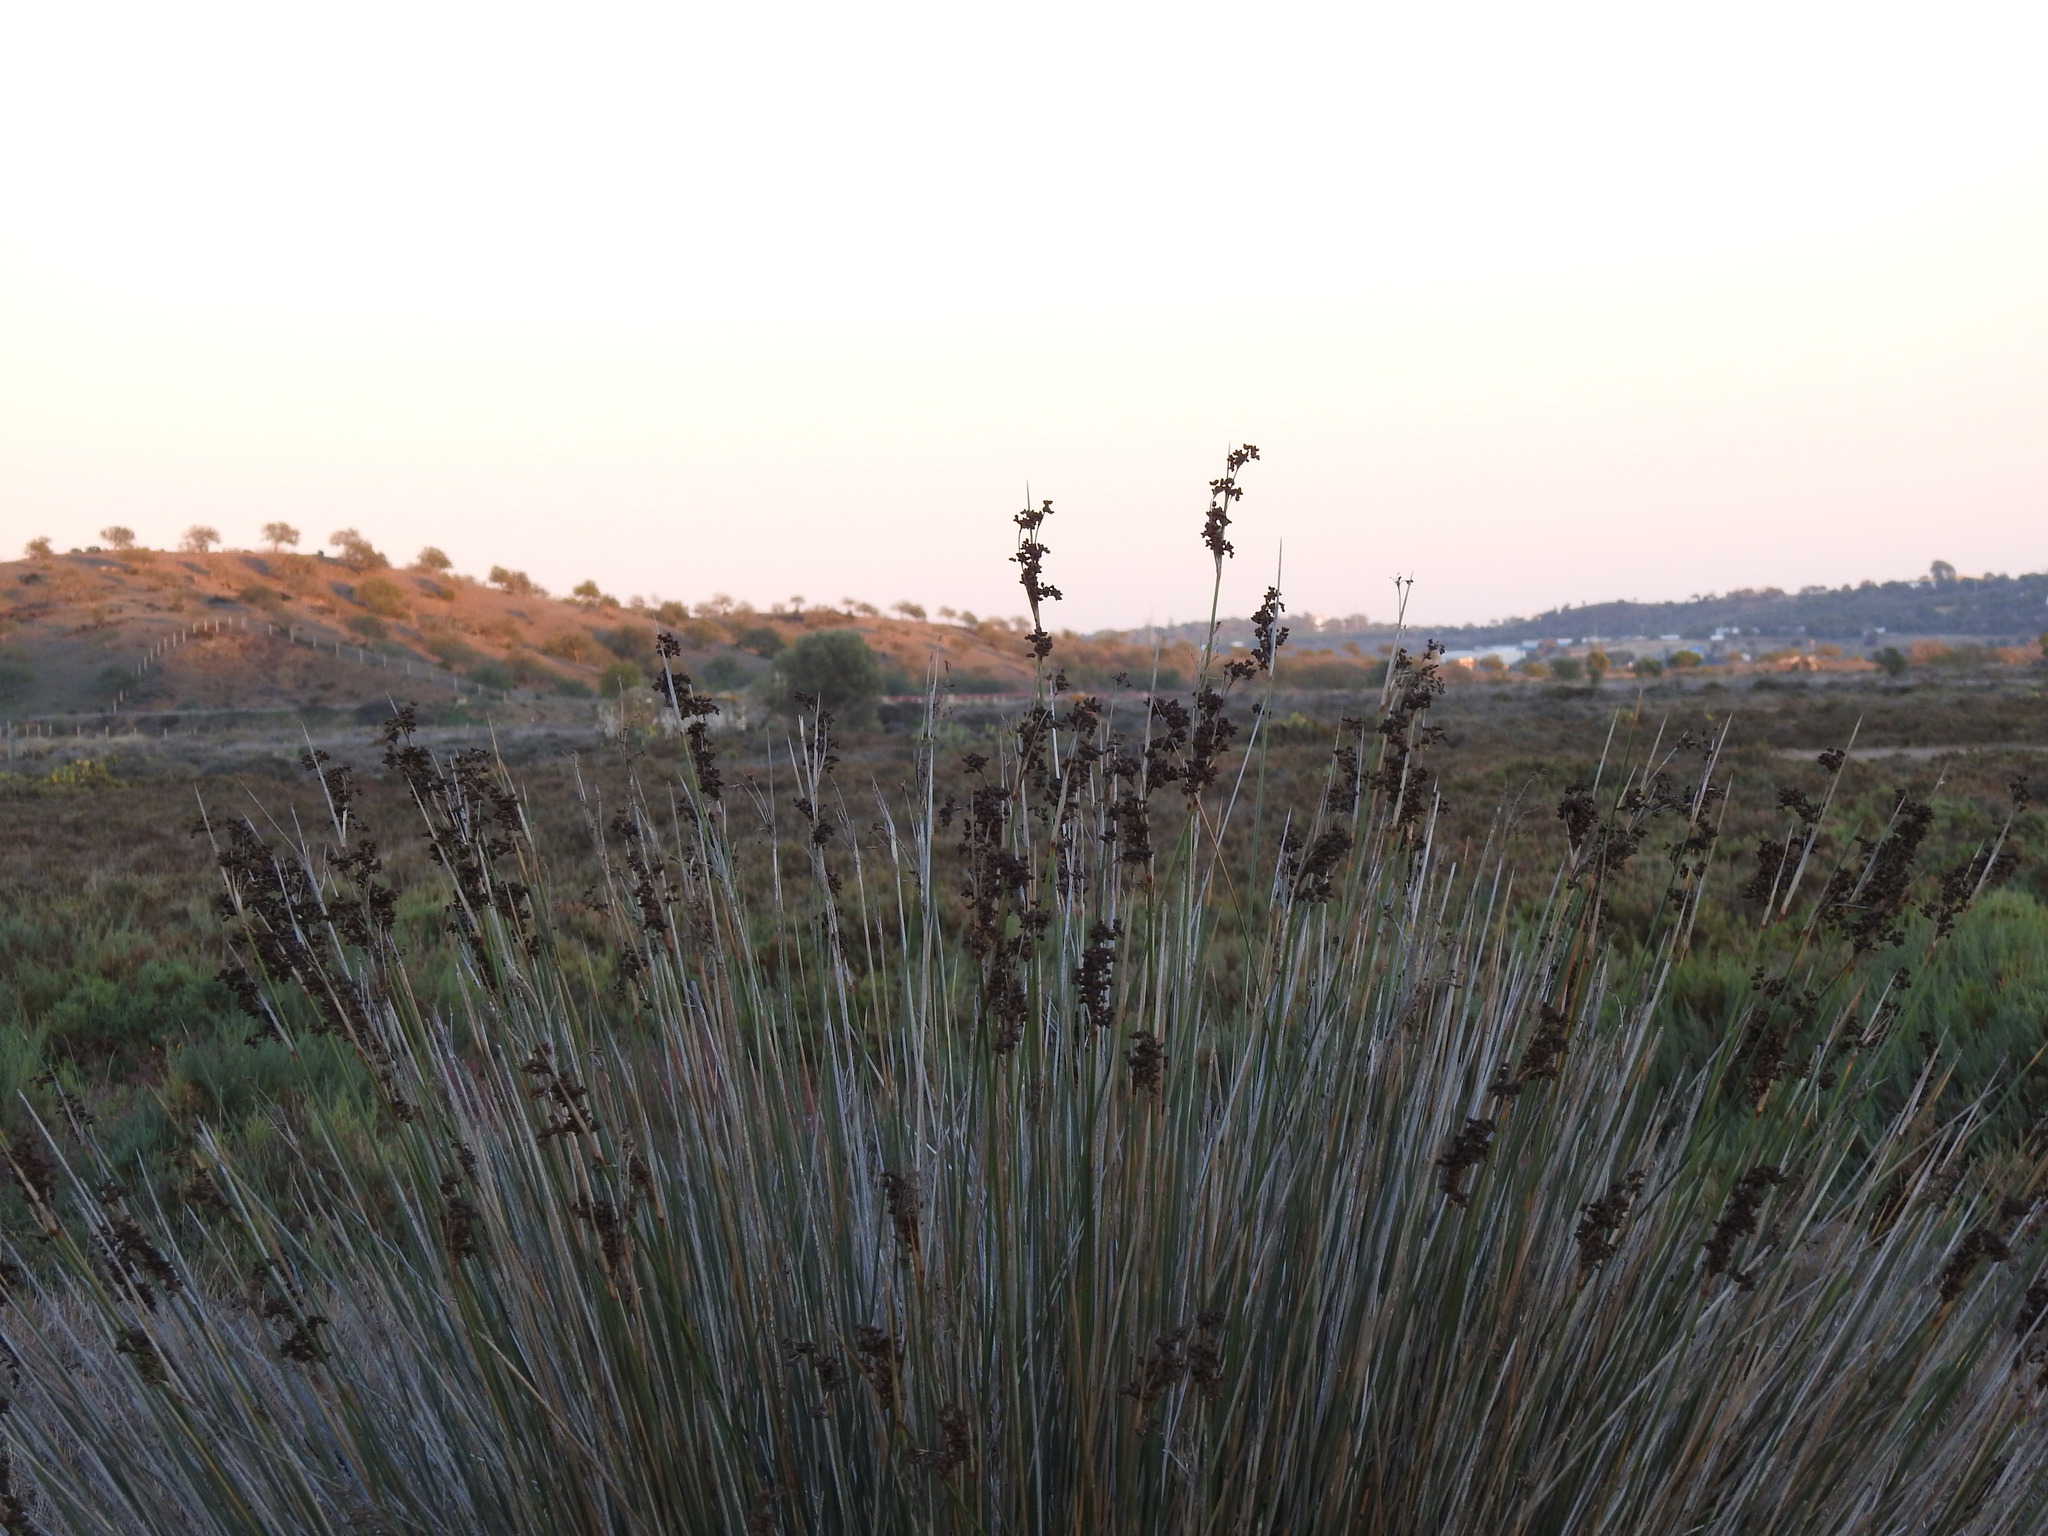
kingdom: Plantae
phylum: Tracheophyta
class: Liliopsida
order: Poales
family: Juncaceae
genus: Juncus
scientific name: Juncus acutus
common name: Sharp rush
